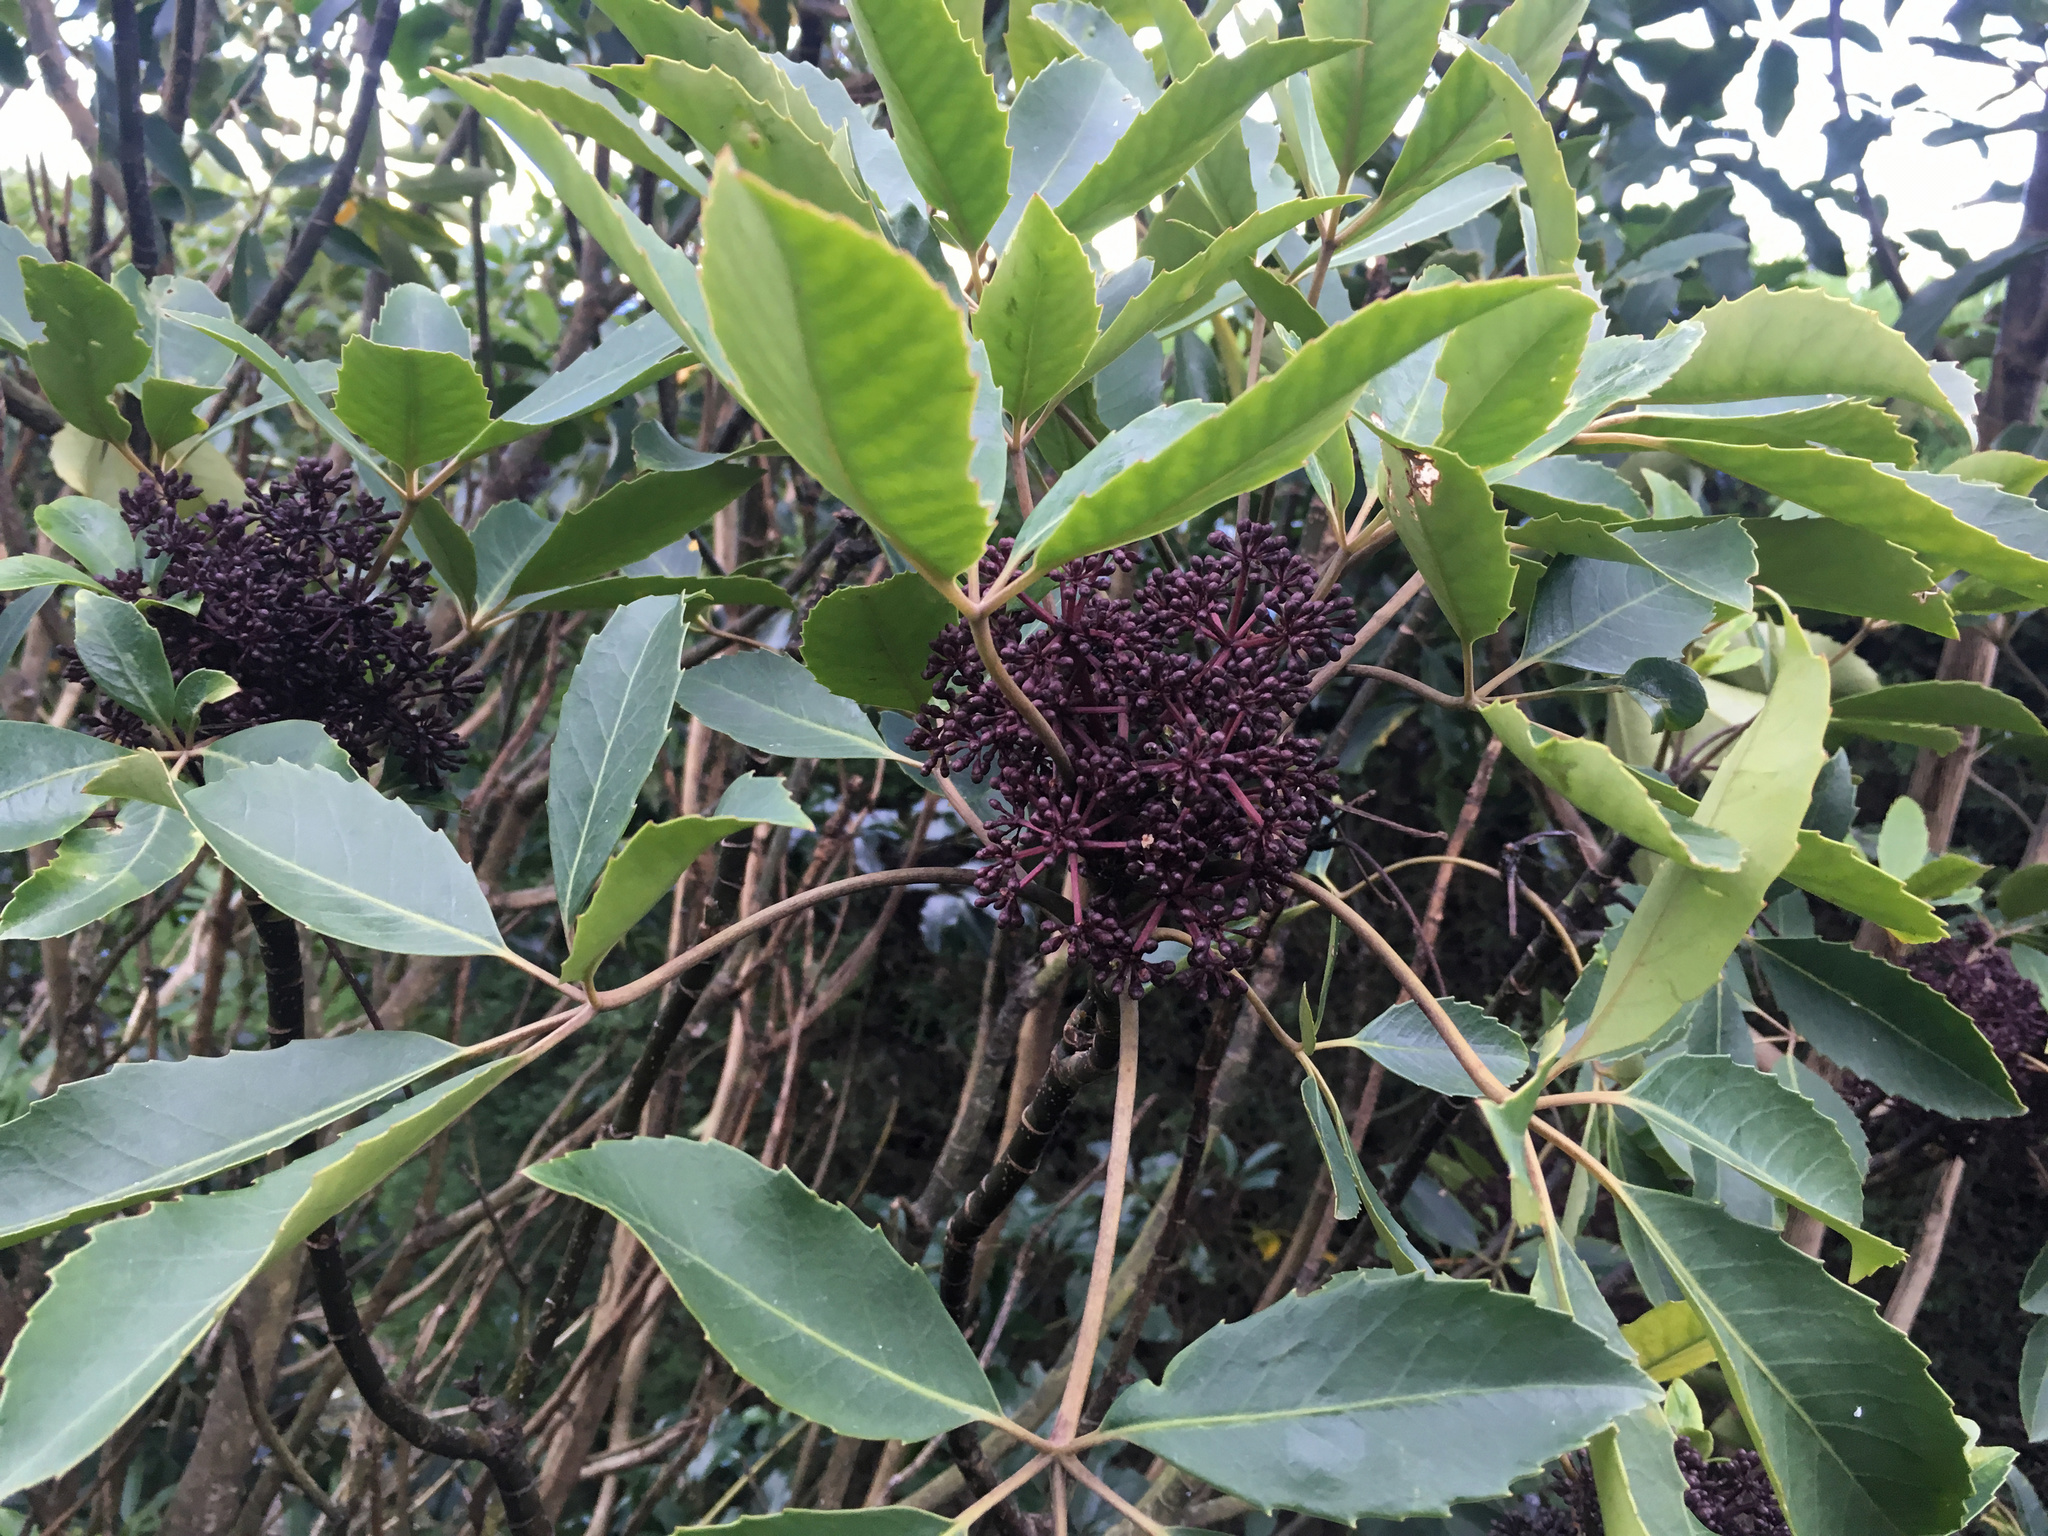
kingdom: Plantae
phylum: Tracheophyta
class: Magnoliopsida
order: Apiales
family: Araliaceae
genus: Neopanax
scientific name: Neopanax arboreus
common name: Five-fingers
